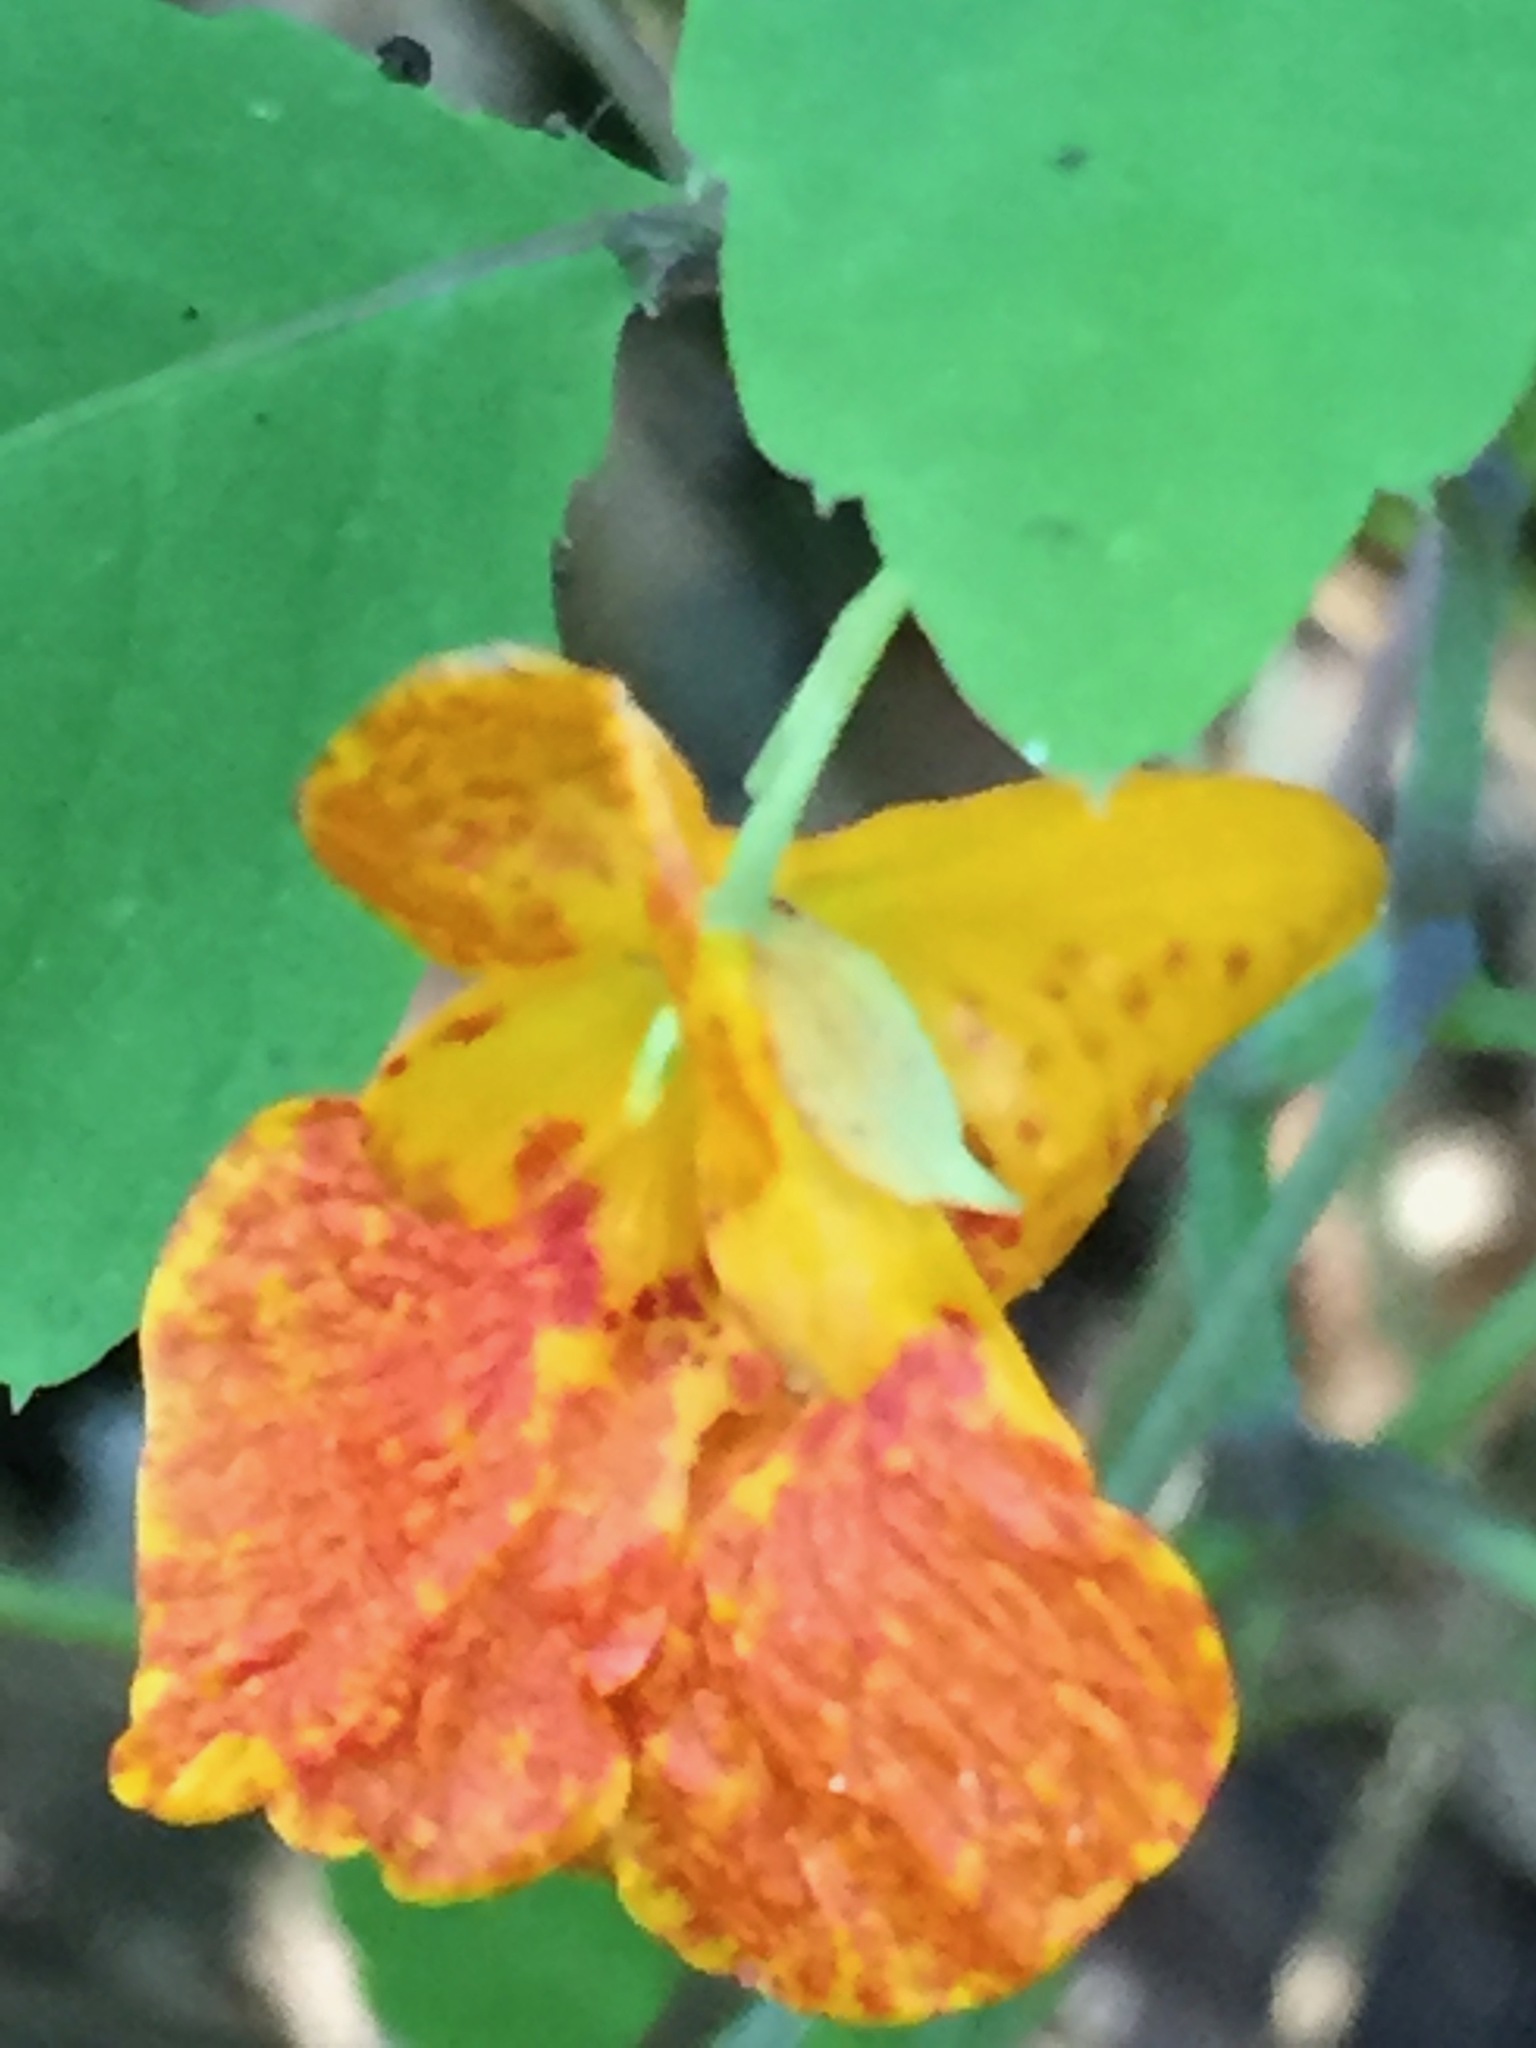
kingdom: Plantae
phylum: Tracheophyta
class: Magnoliopsida
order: Ericales
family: Balsaminaceae
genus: Impatiens
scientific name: Impatiens capensis
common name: Orange balsam
